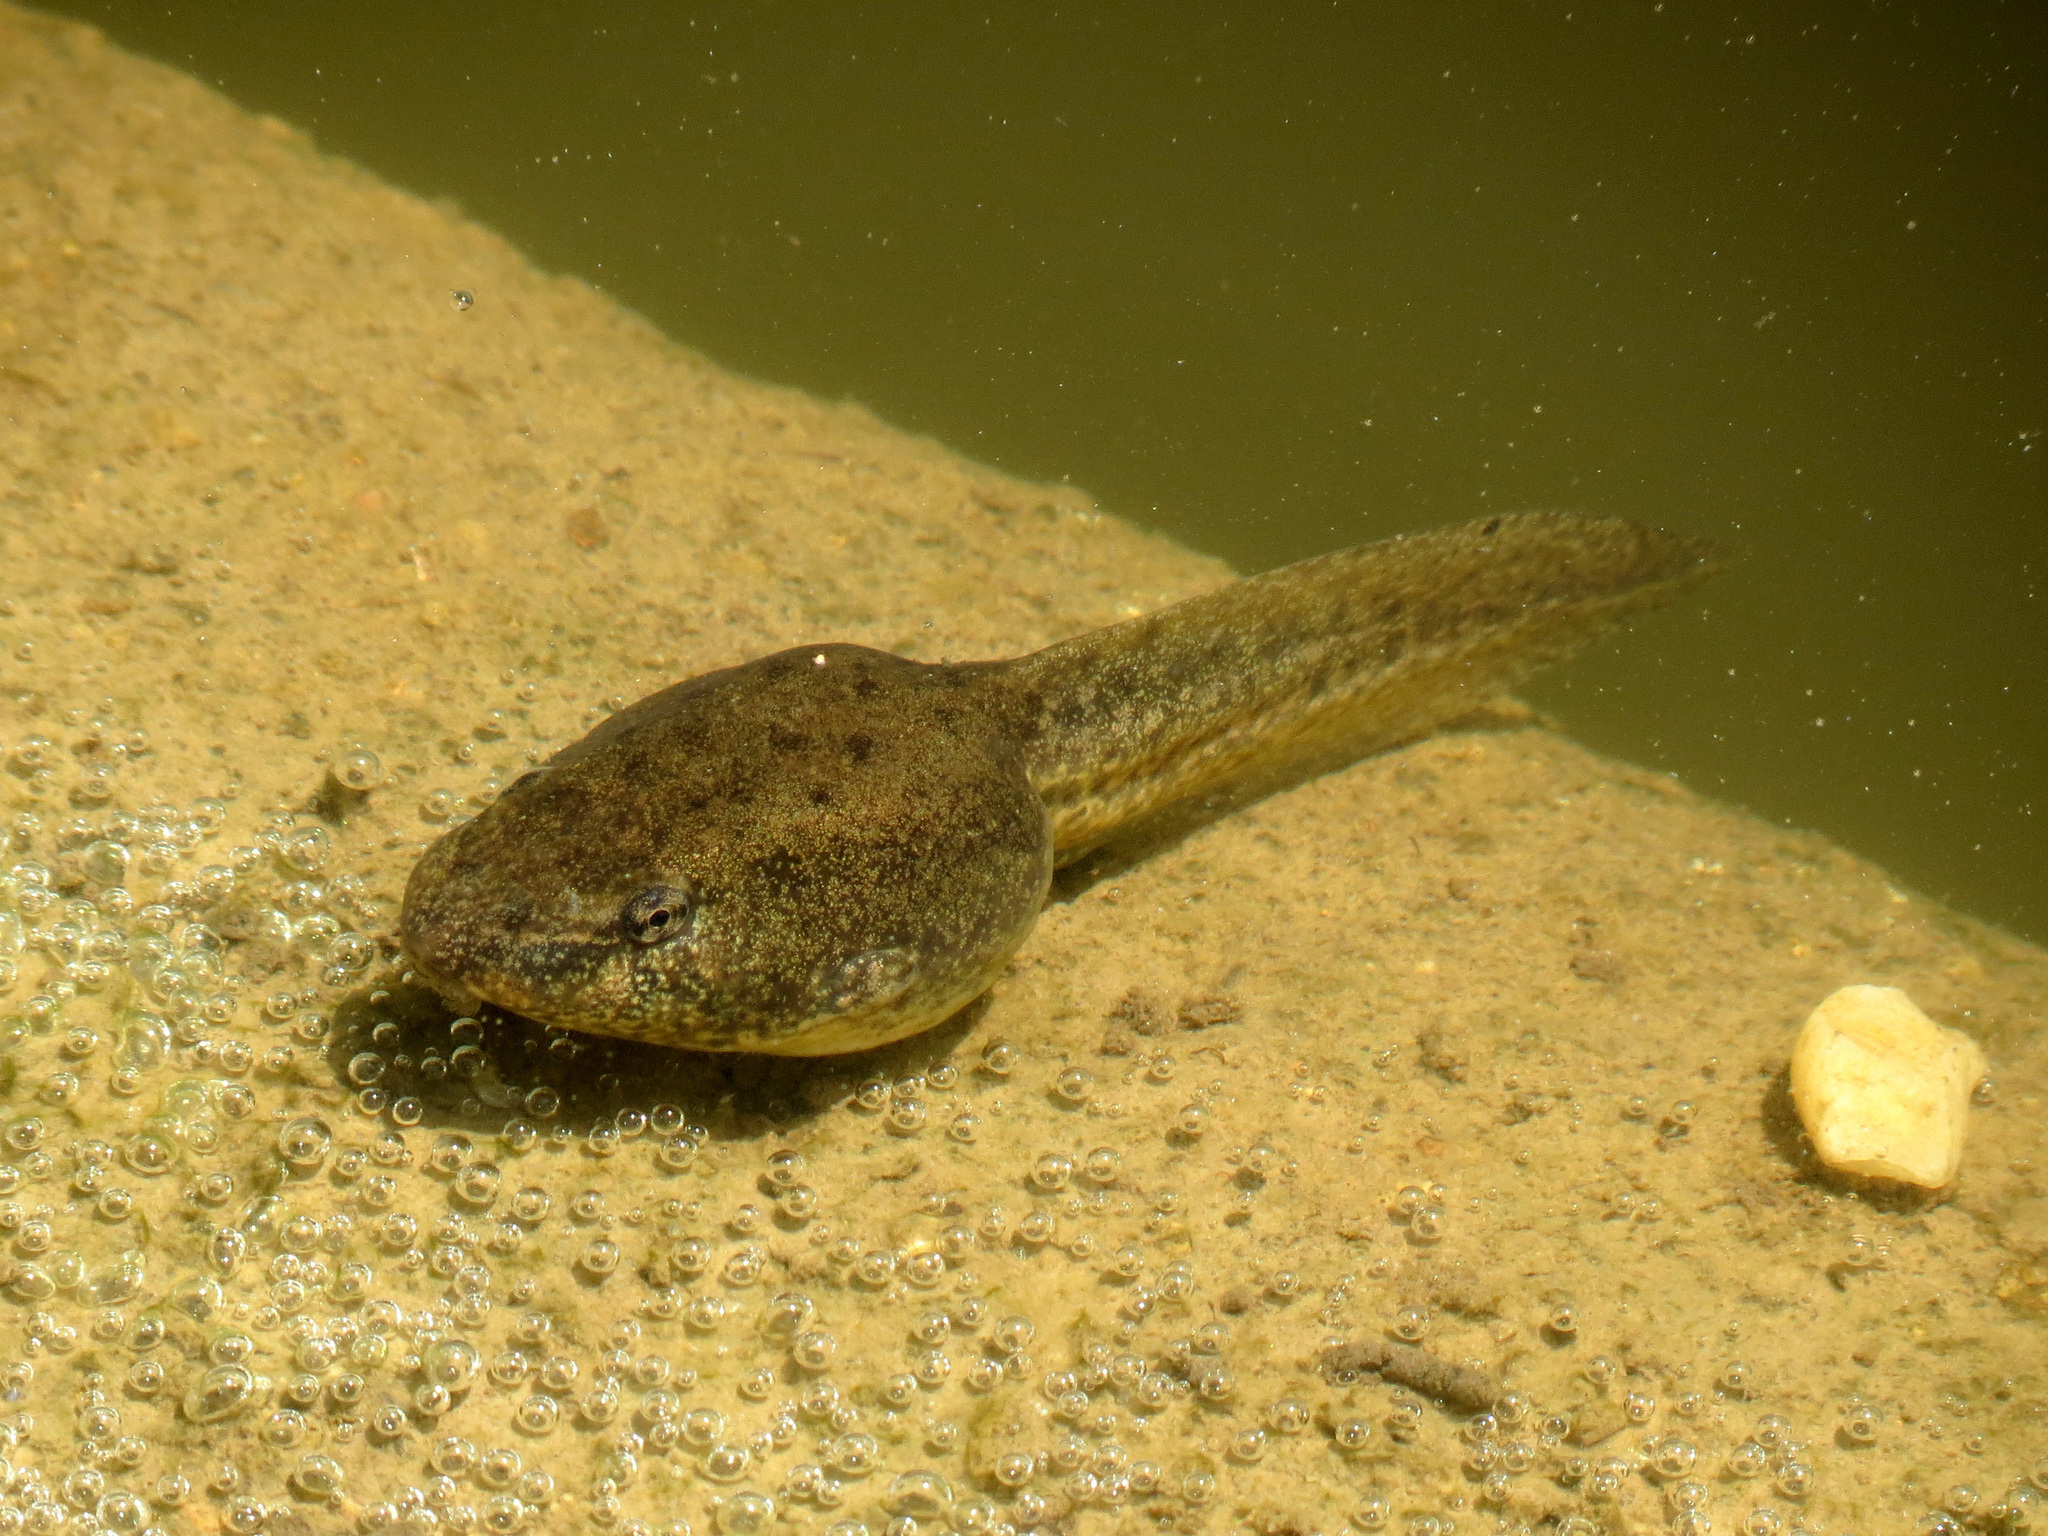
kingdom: Animalia
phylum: Chordata
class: Amphibia
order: Anura
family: Ranidae
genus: Lithobates
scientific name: Lithobates clamitans
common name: Green frog
